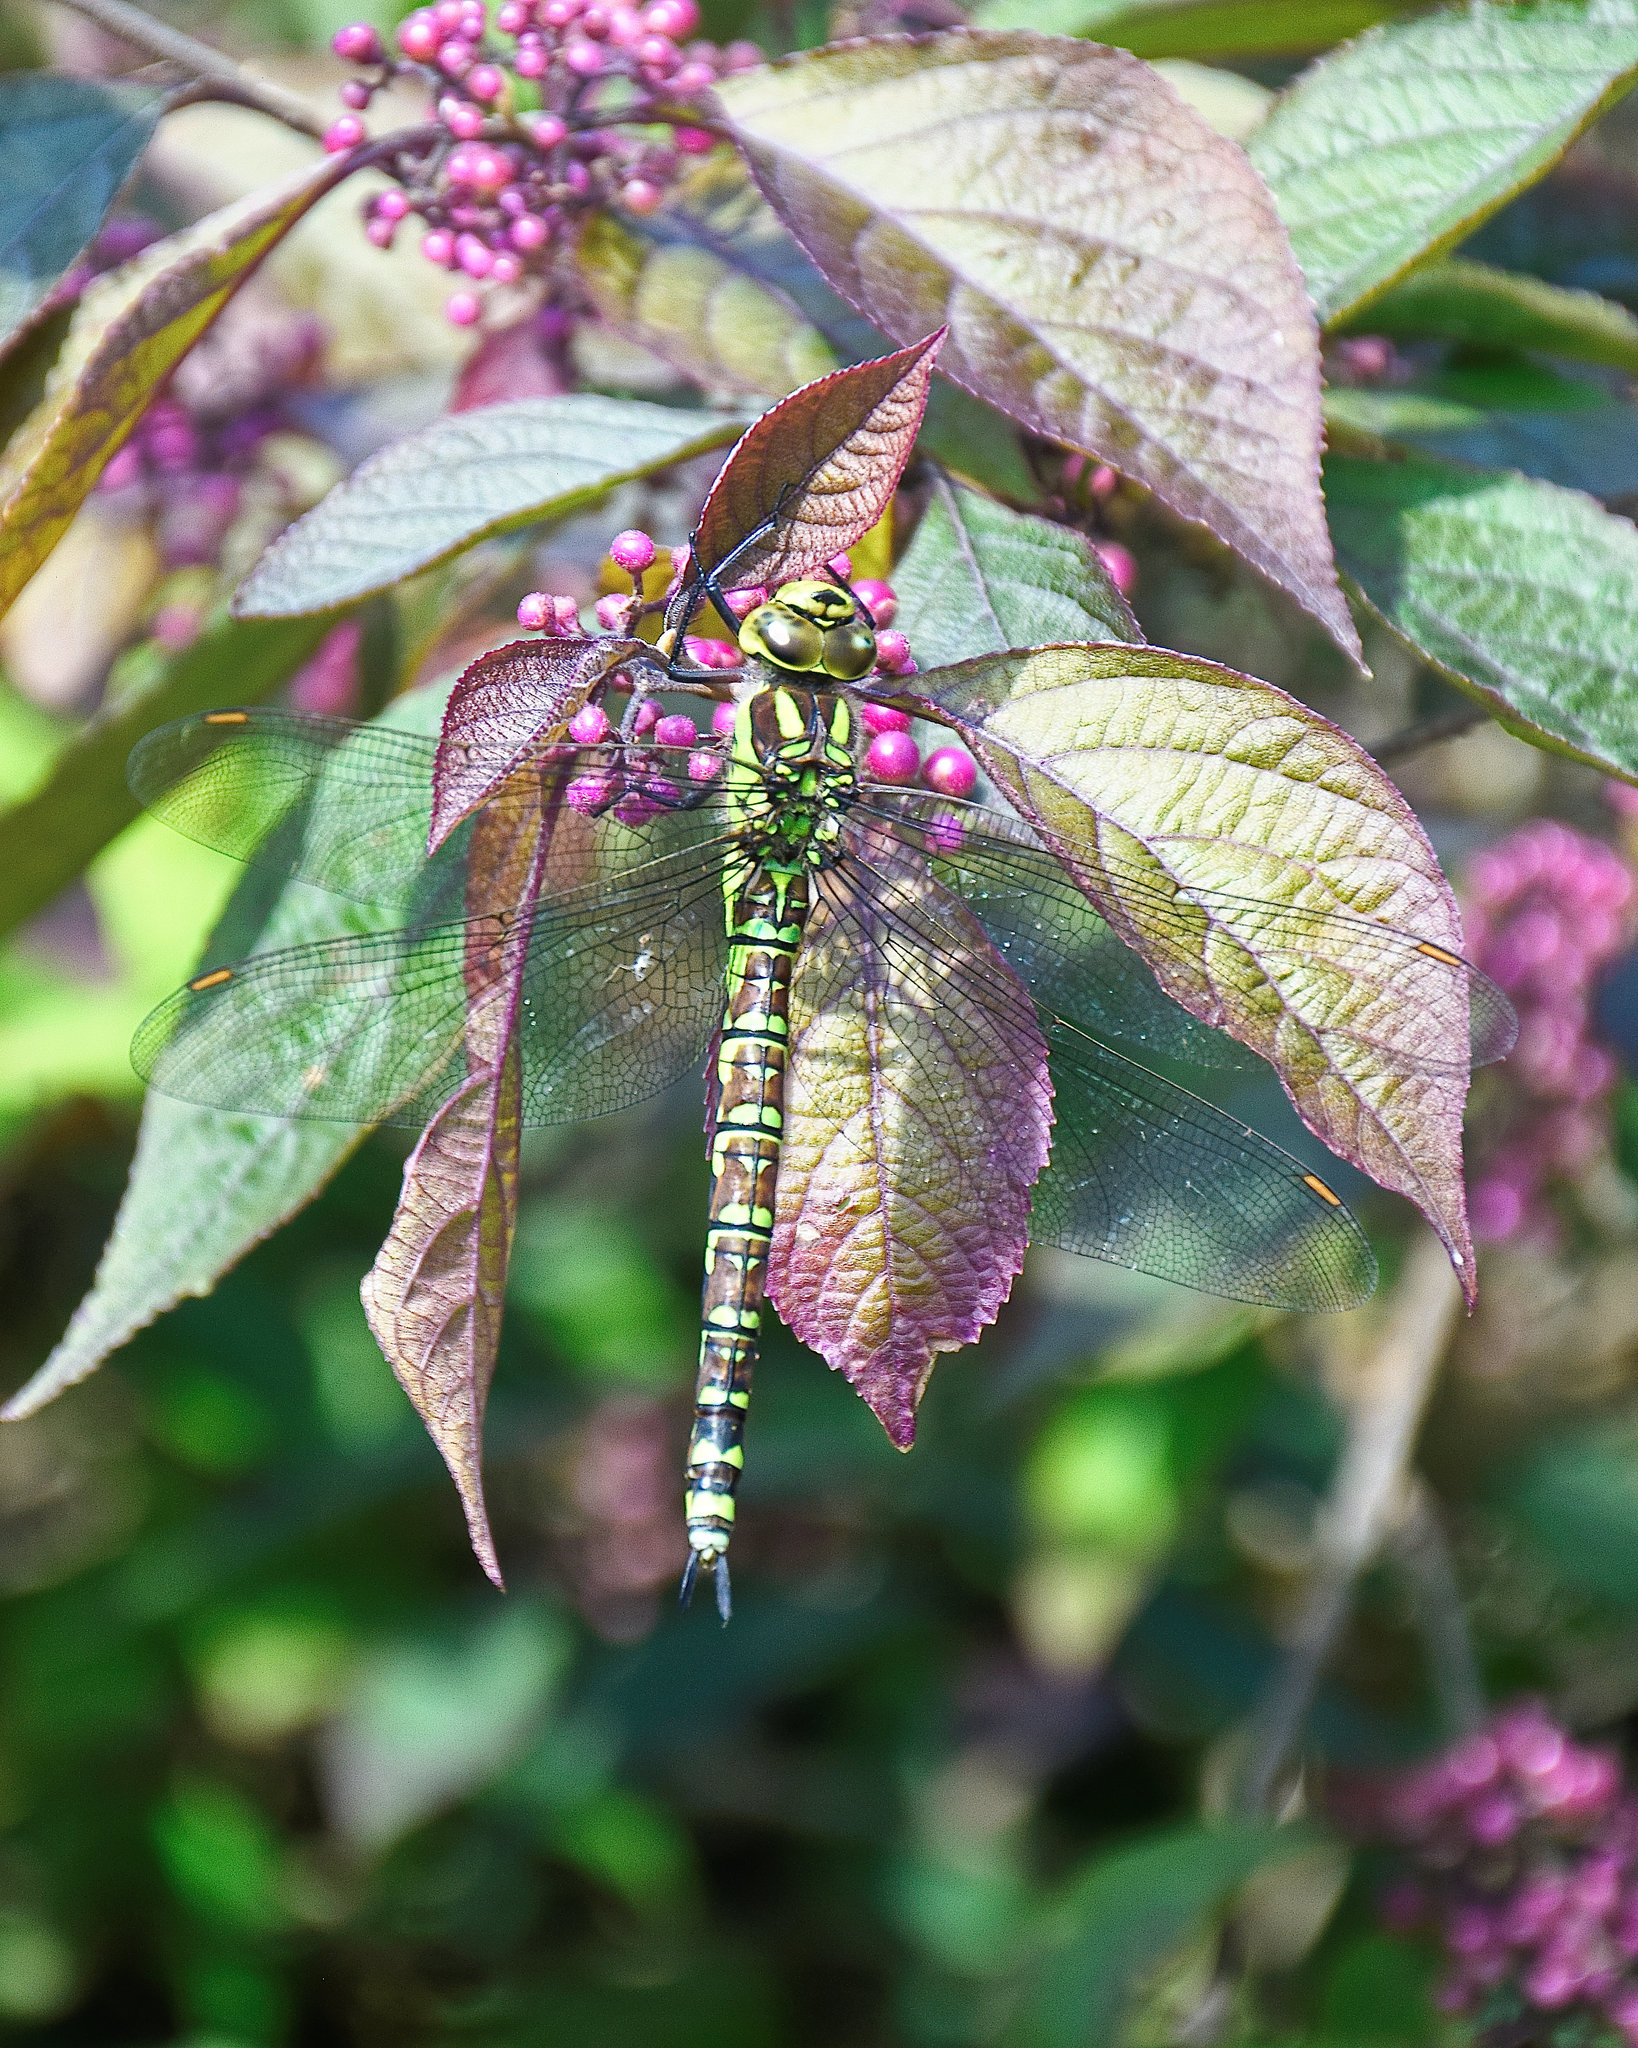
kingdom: Animalia
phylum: Arthropoda
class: Insecta
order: Odonata
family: Aeshnidae
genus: Aeshna
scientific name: Aeshna cyanea
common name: Southern hawker
